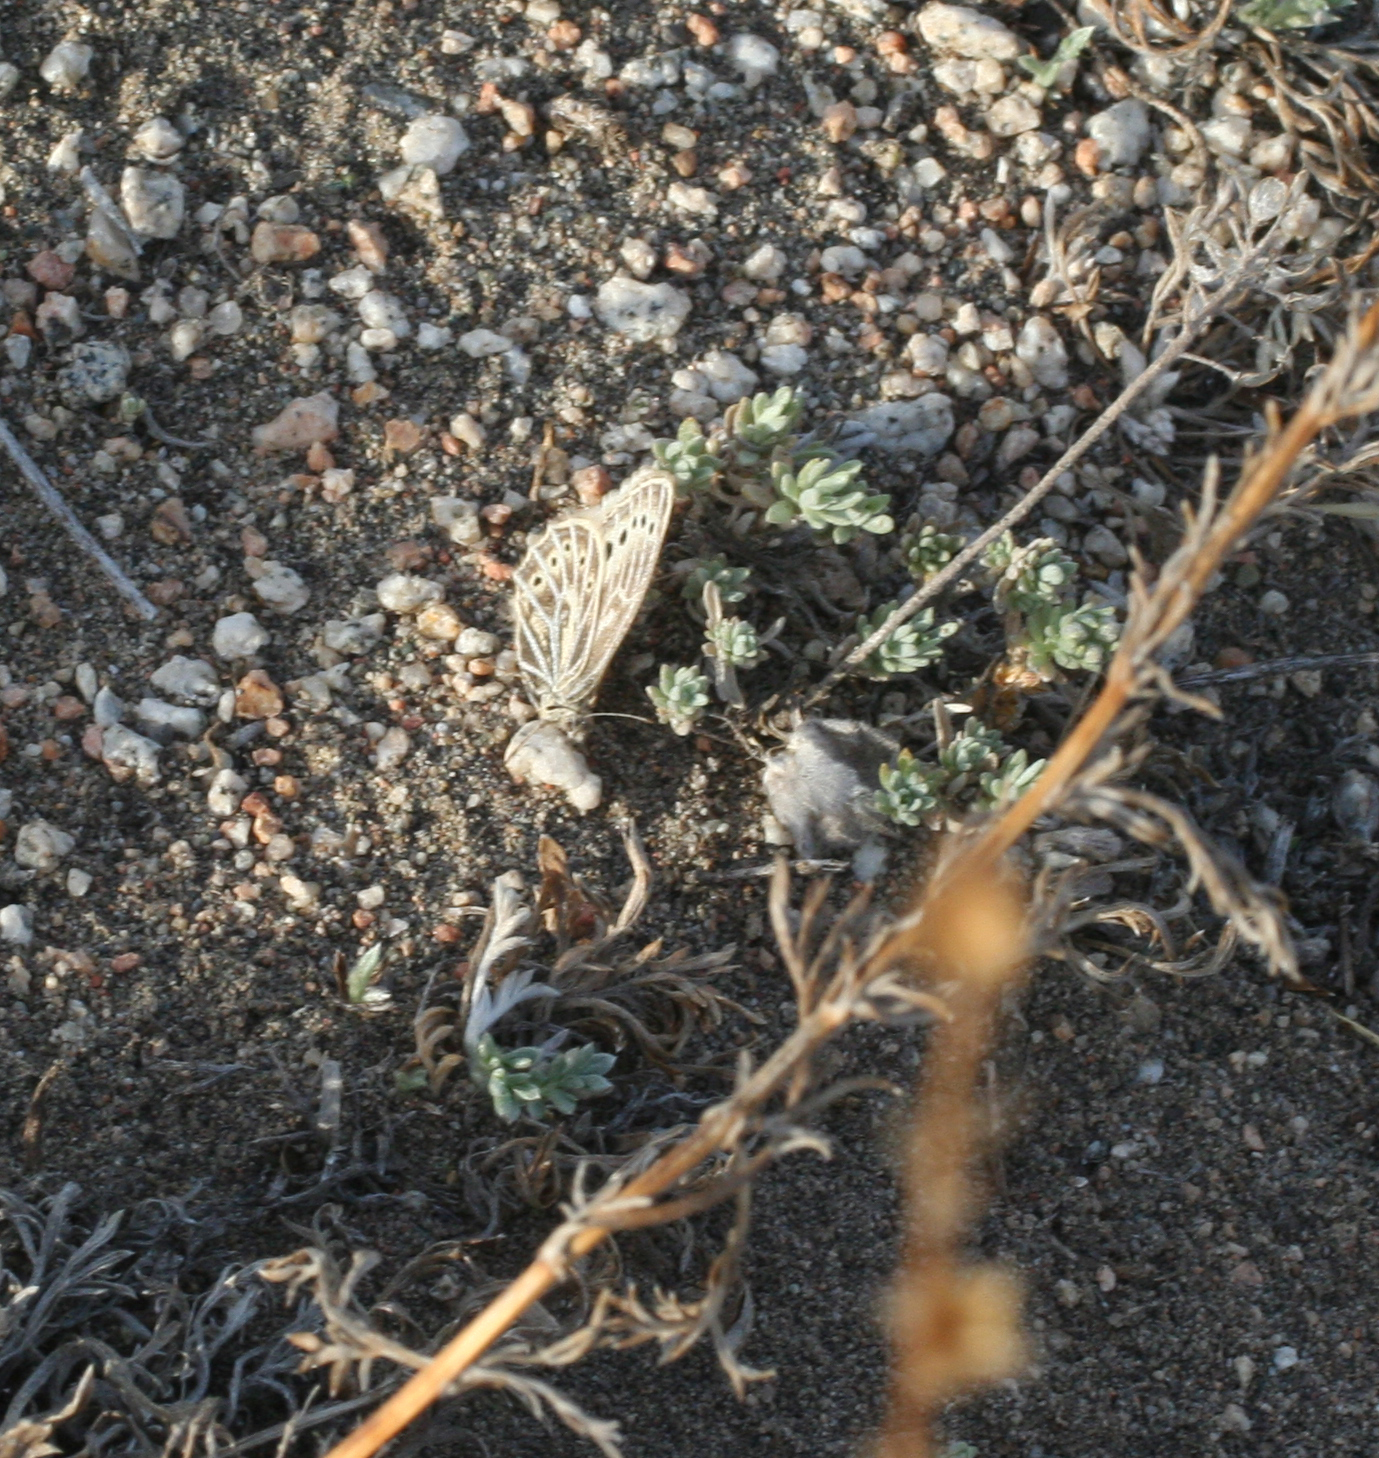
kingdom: Animalia
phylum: Arthropoda
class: Insecta
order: Lepidoptera
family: Nymphalidae
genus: Triphysa
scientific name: Triphysa phryne
